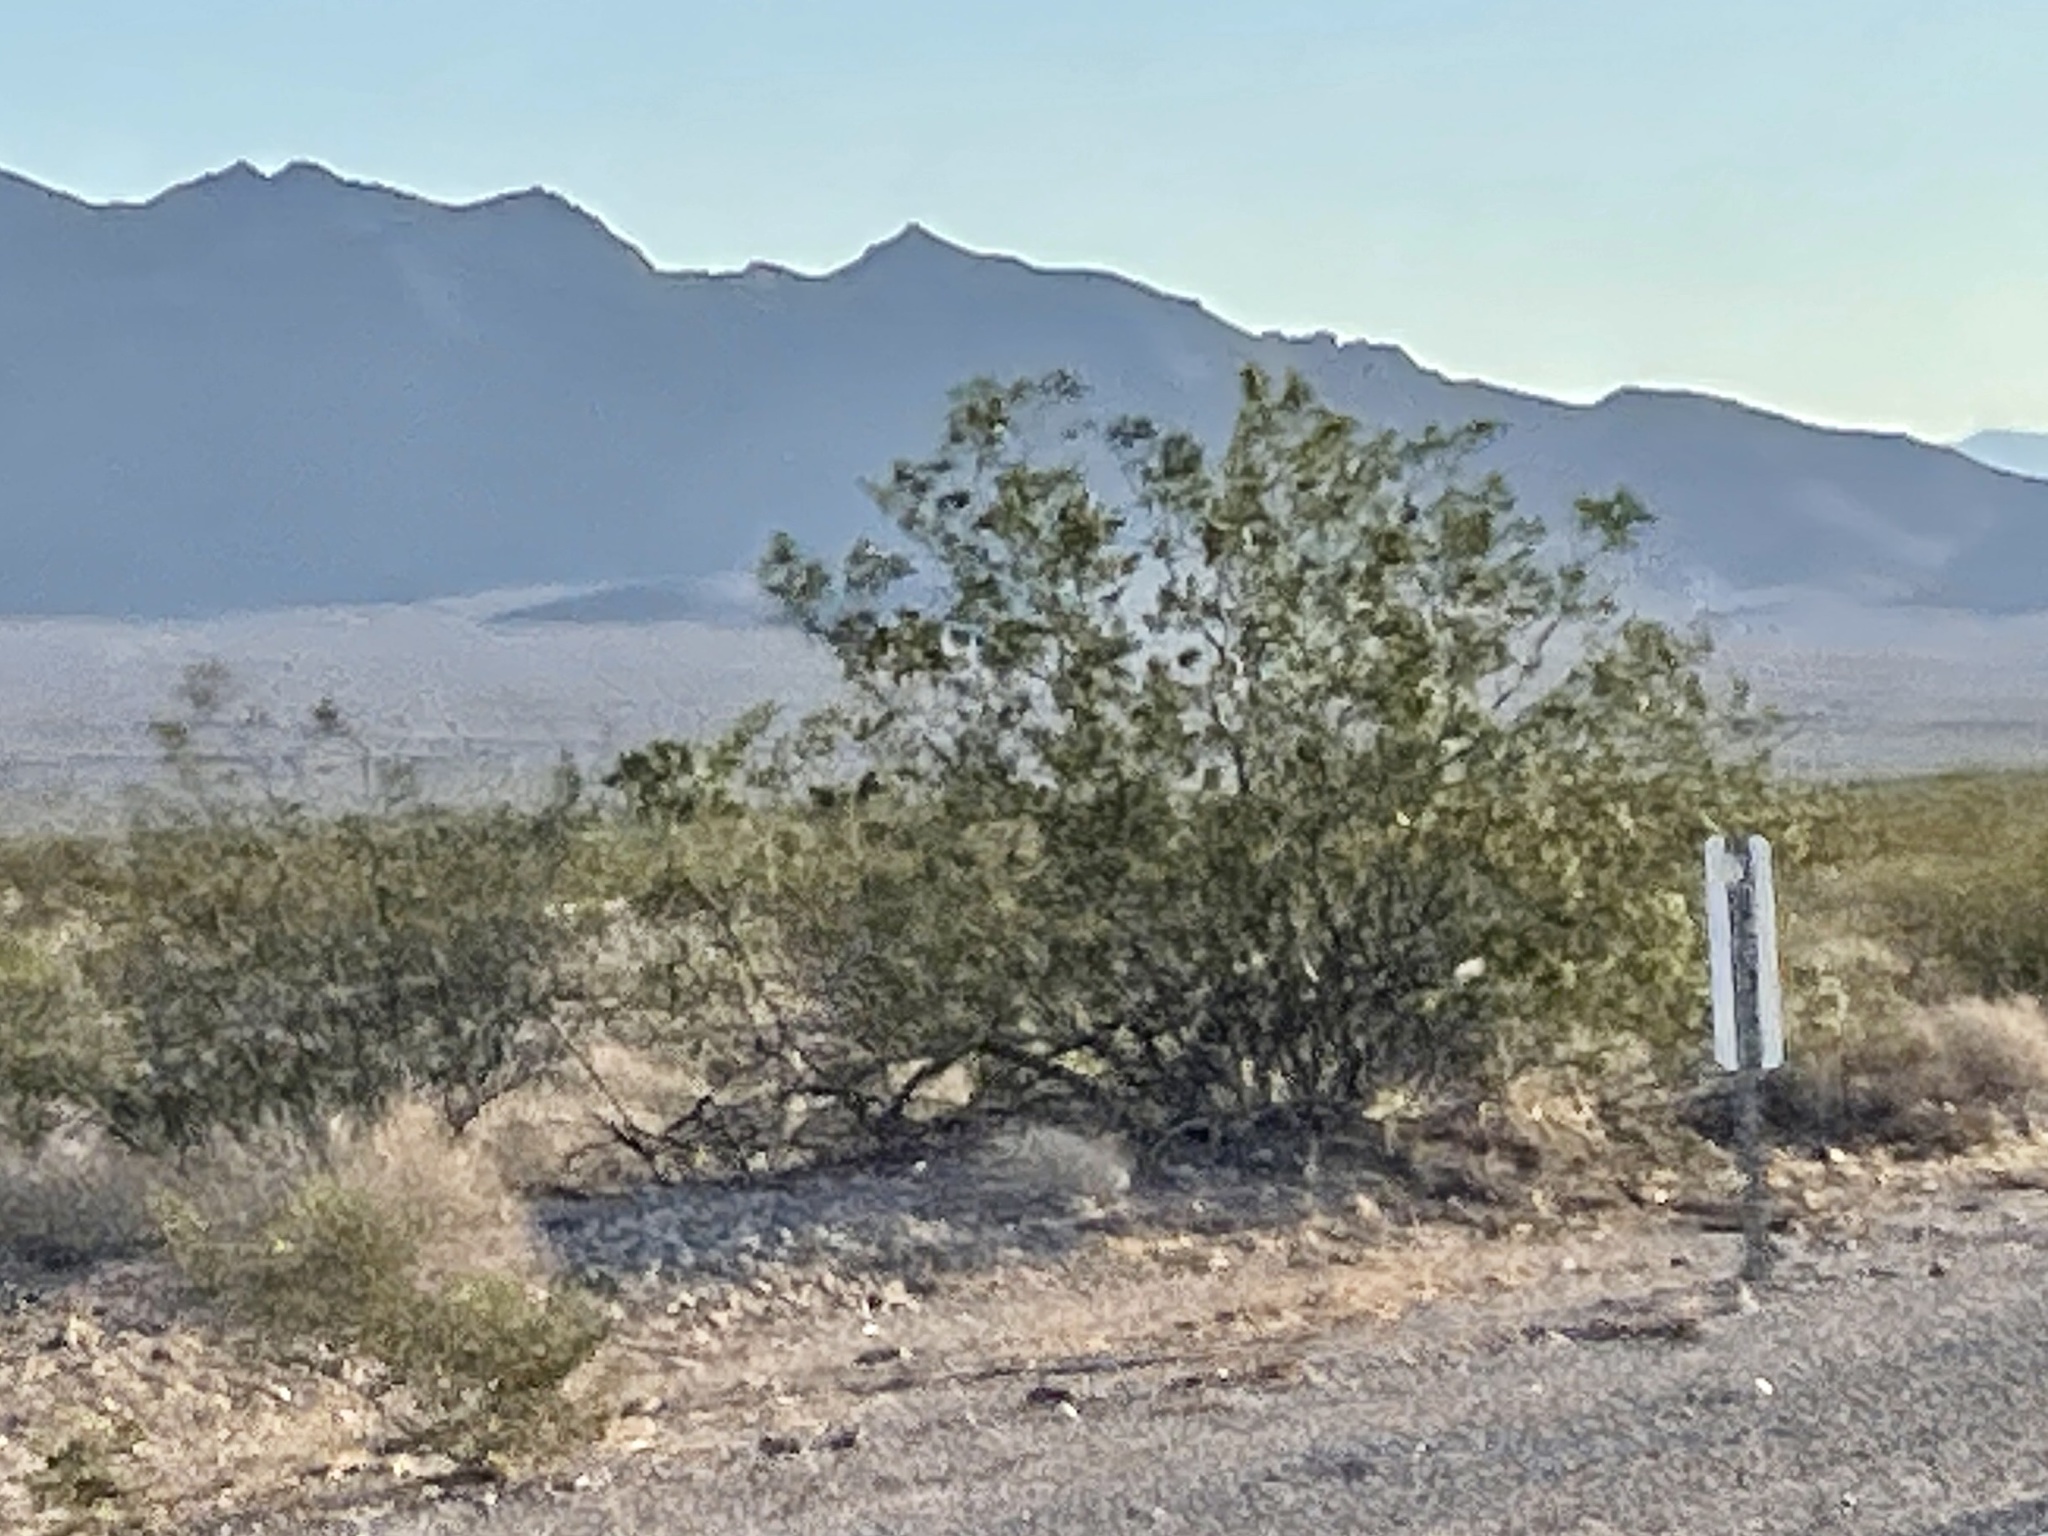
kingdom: Plantae
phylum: Tracheophyta
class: Magnoliopsida
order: Zygophyllales
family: Zygophyllaceae
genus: Larrea
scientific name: Larrea tridentata
